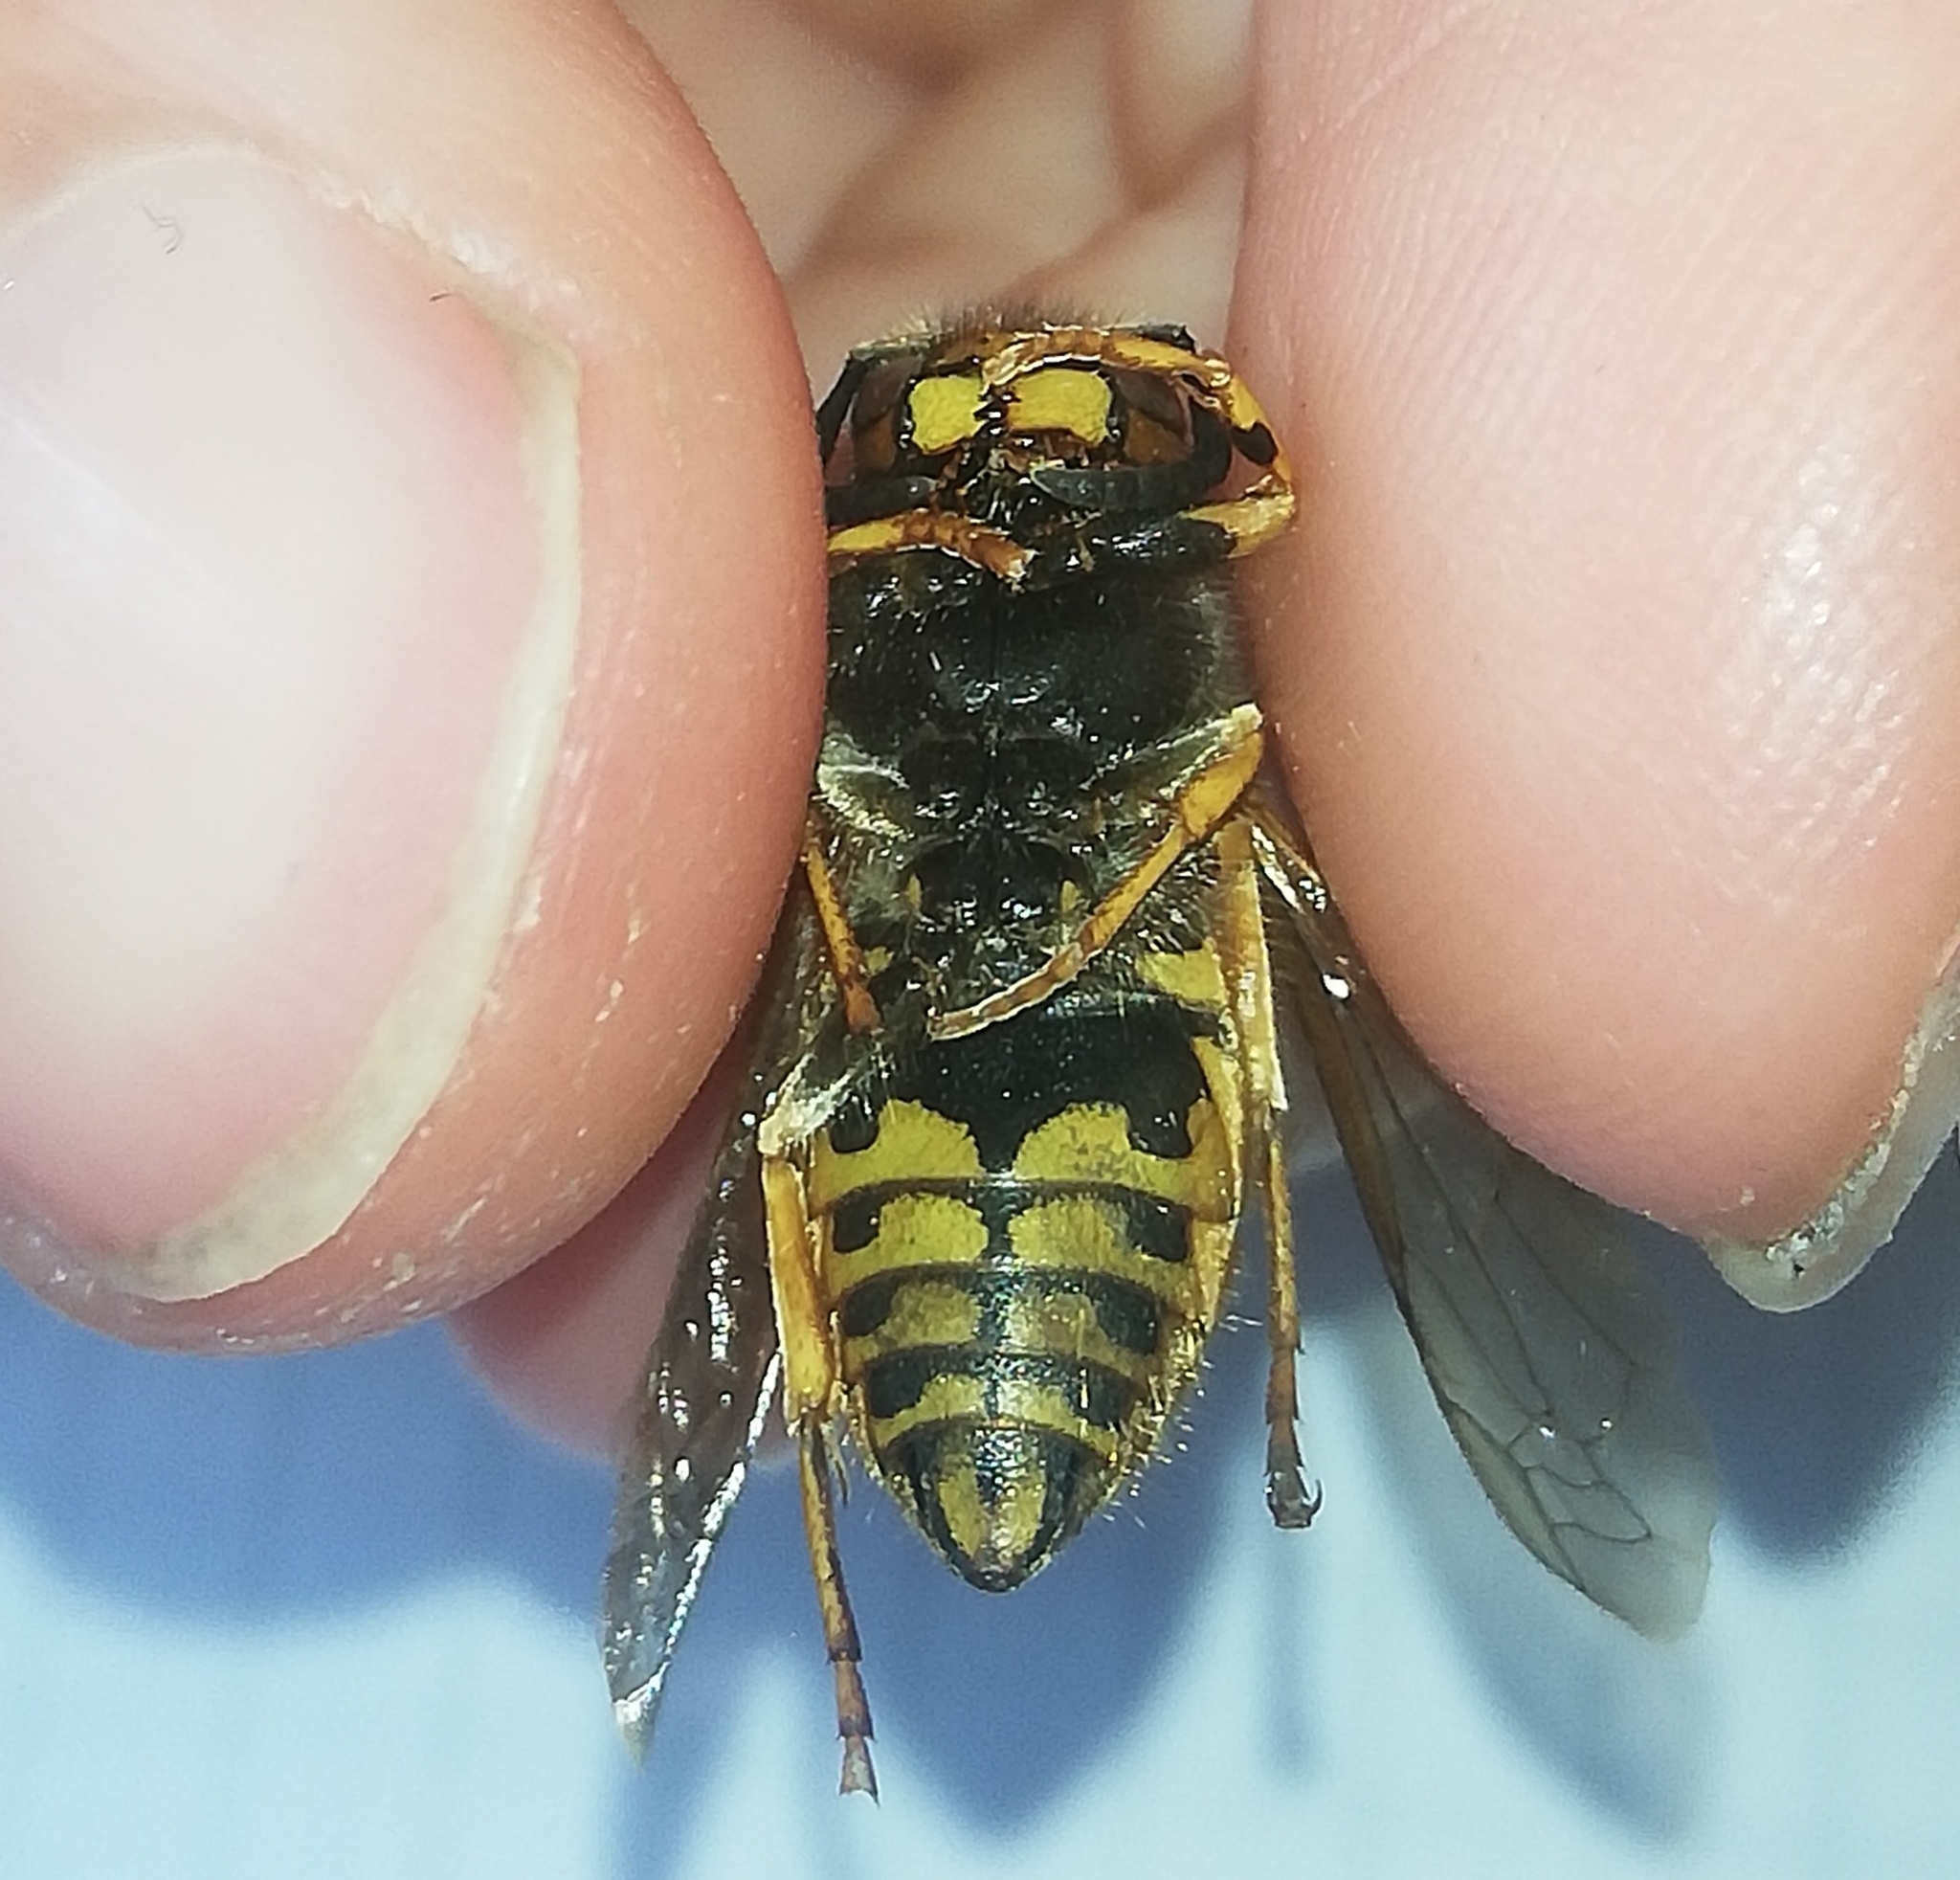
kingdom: Animalia
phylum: Arthropoda
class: Insecta
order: Hymenoptera
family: Vespidae
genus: Vespula
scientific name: Vespula germanica
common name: German wasp
